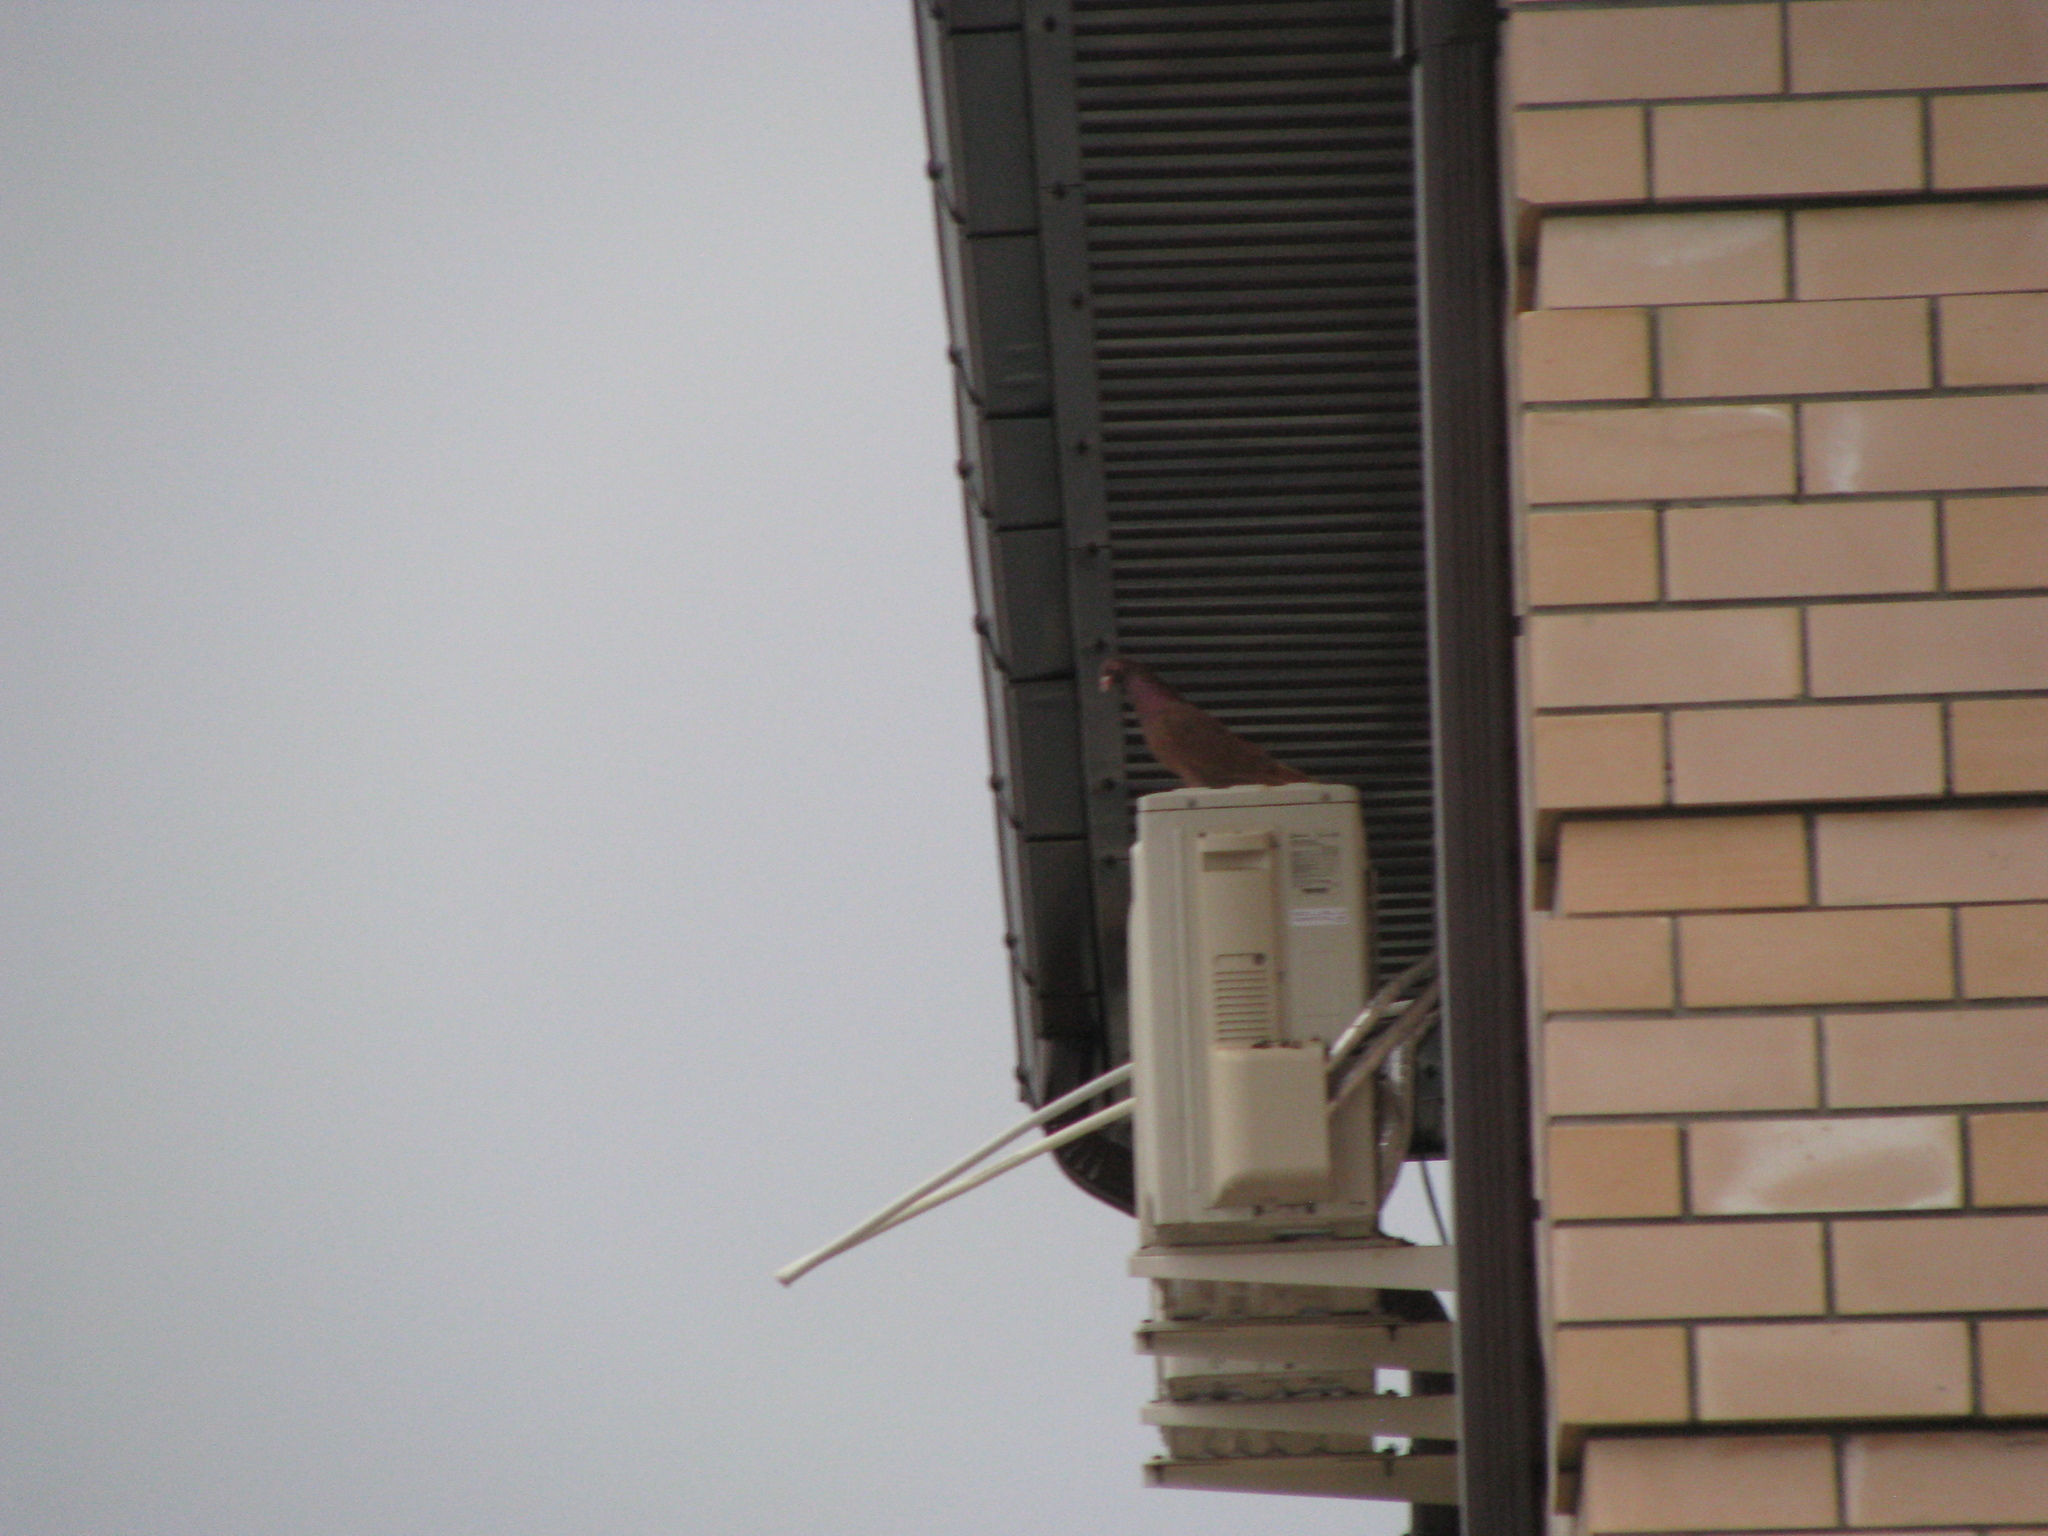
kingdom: Animalia
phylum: Chordata
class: Aves
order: Columbiformes
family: Columbidae
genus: Columba
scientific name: Columba livia
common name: Rock pigeon
